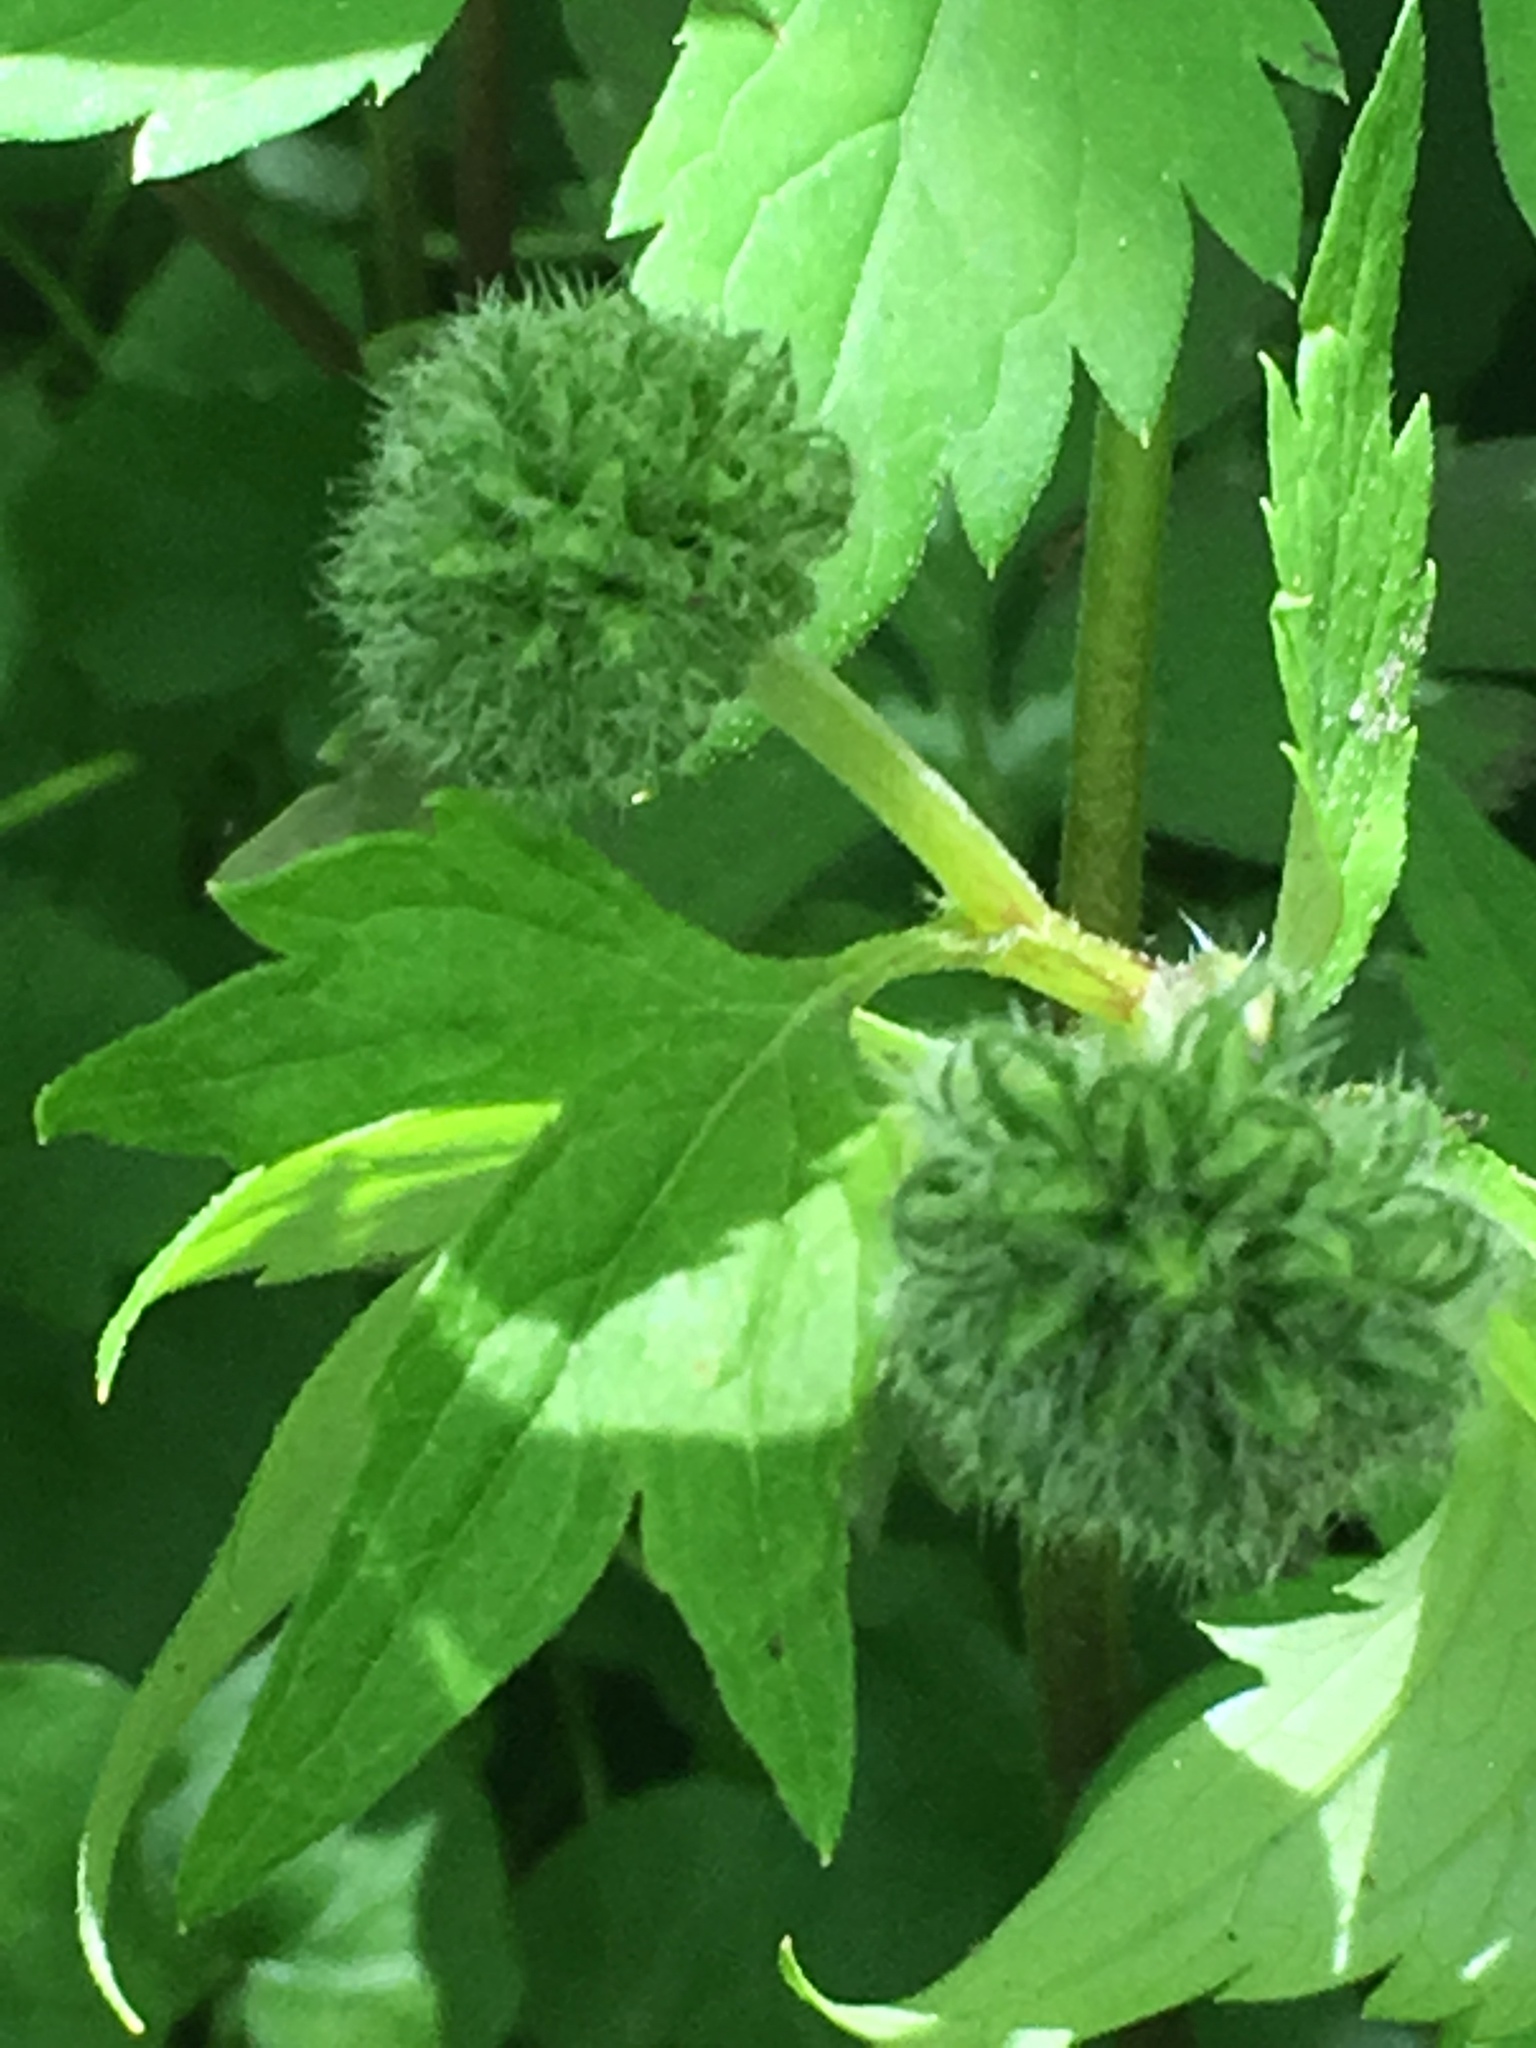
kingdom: Plantae
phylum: Tracheophyta
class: Magnoliopsida
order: Boraginales
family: Hydrophyllaceae
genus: Hydrophyllum
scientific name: Hydrophyllum virginianum
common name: Virginia waterleaf
